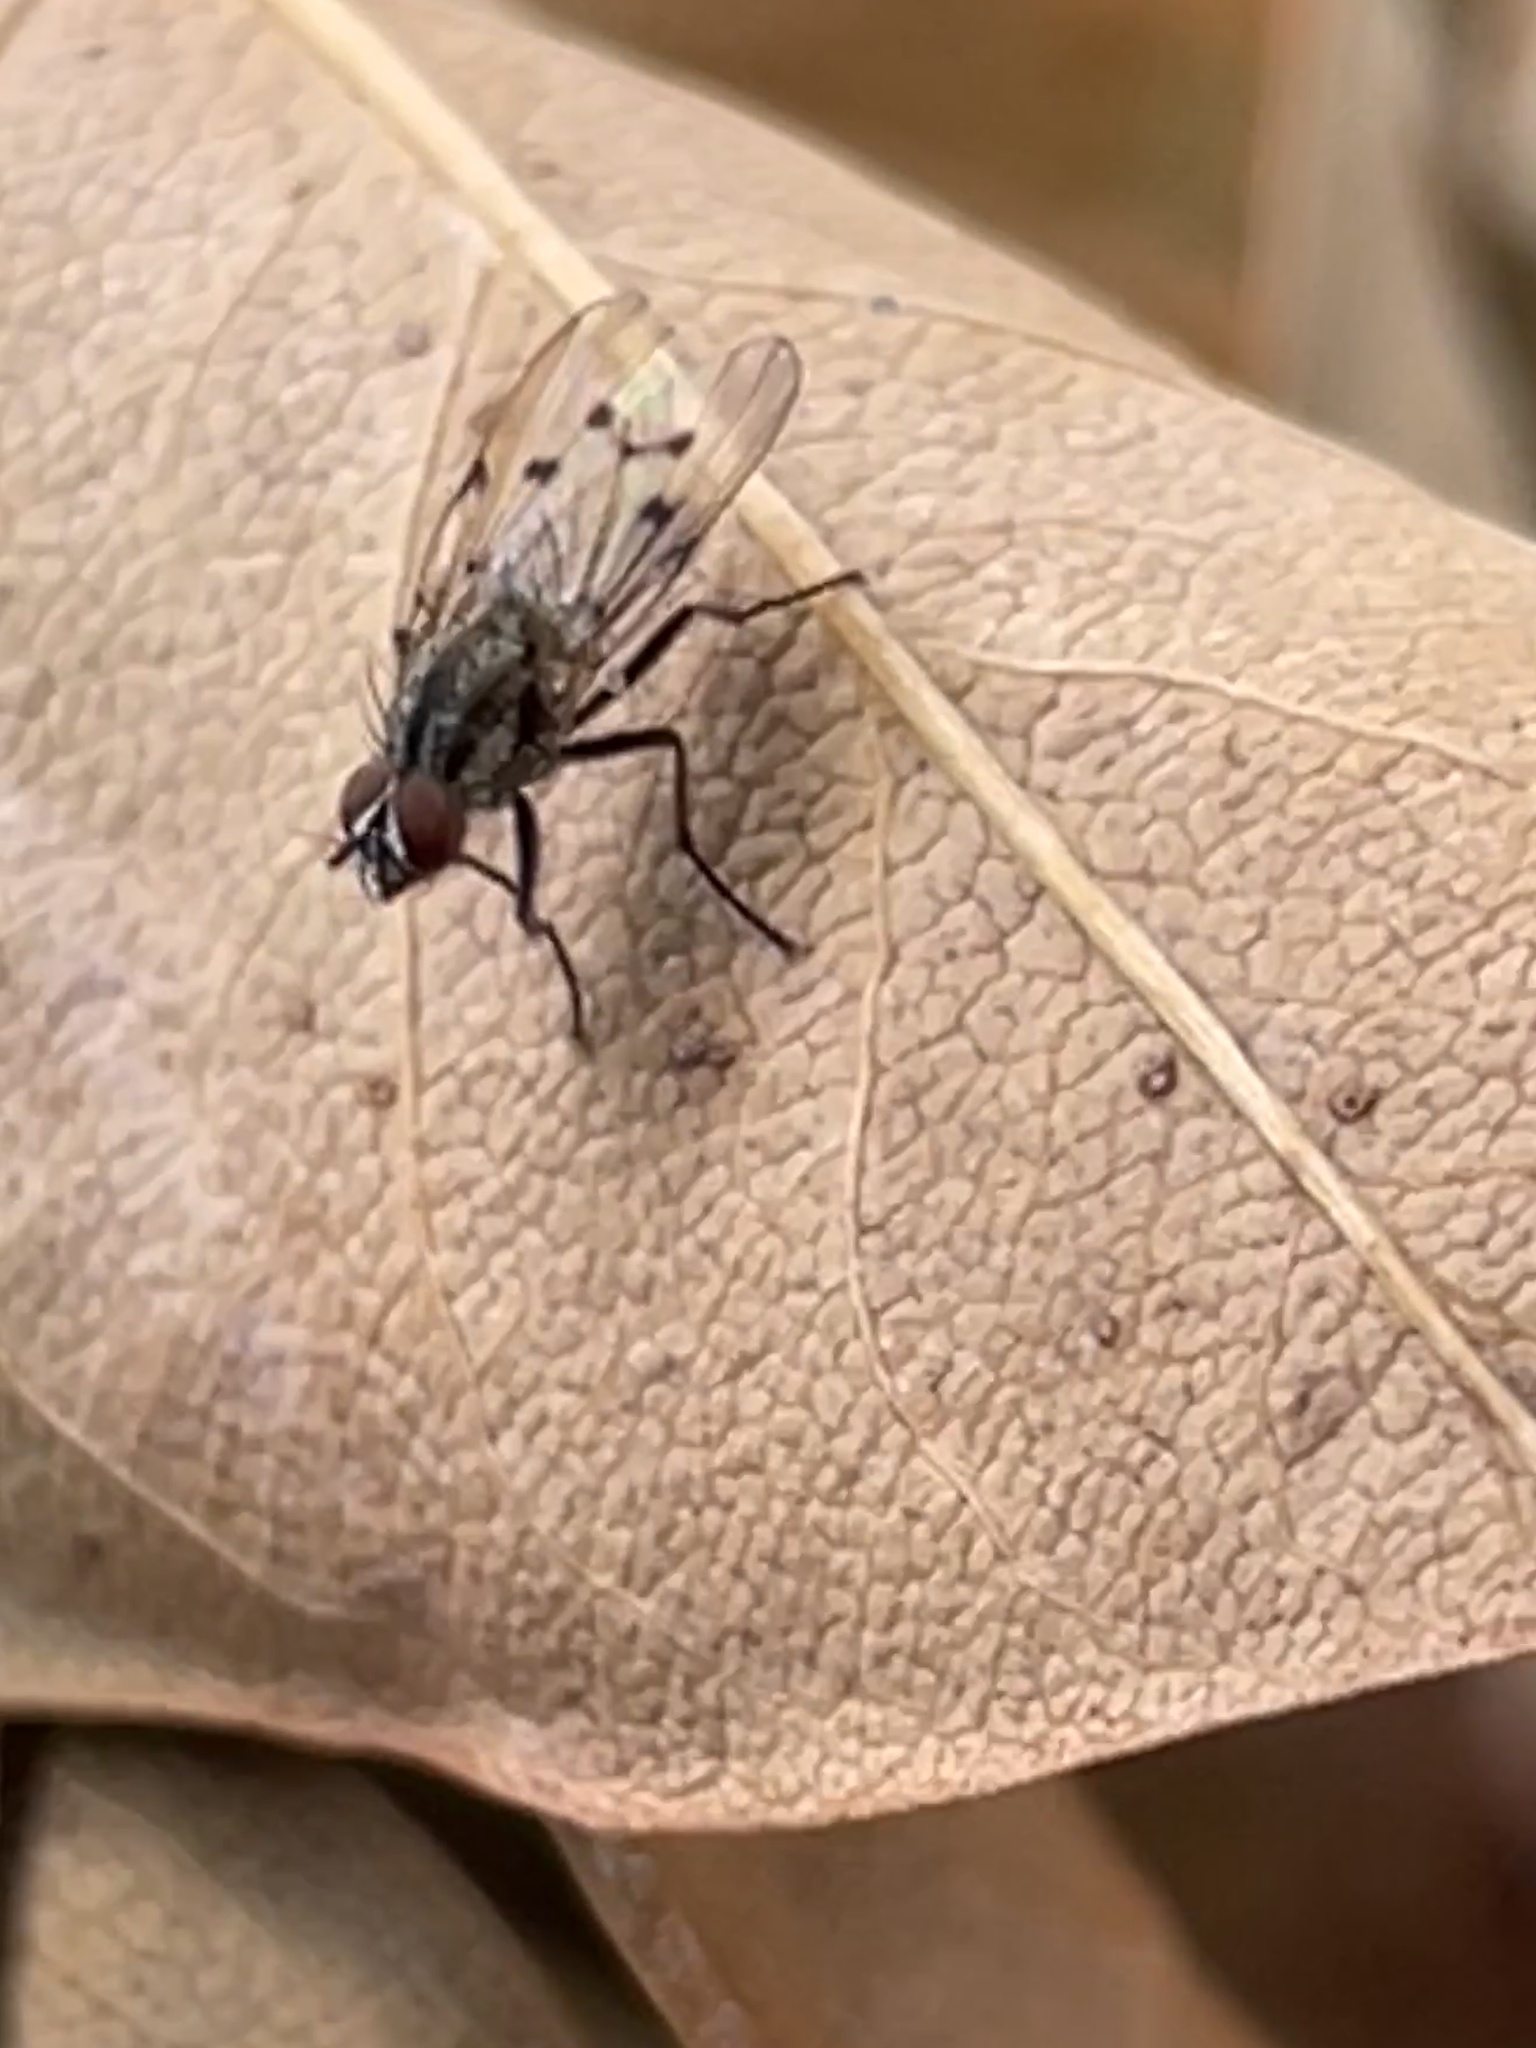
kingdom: Animalia
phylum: Arthropoda
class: Insecta
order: Diptera
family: Anthomyiidae
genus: Anthomyia
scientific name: Anthomyia punctipennis
